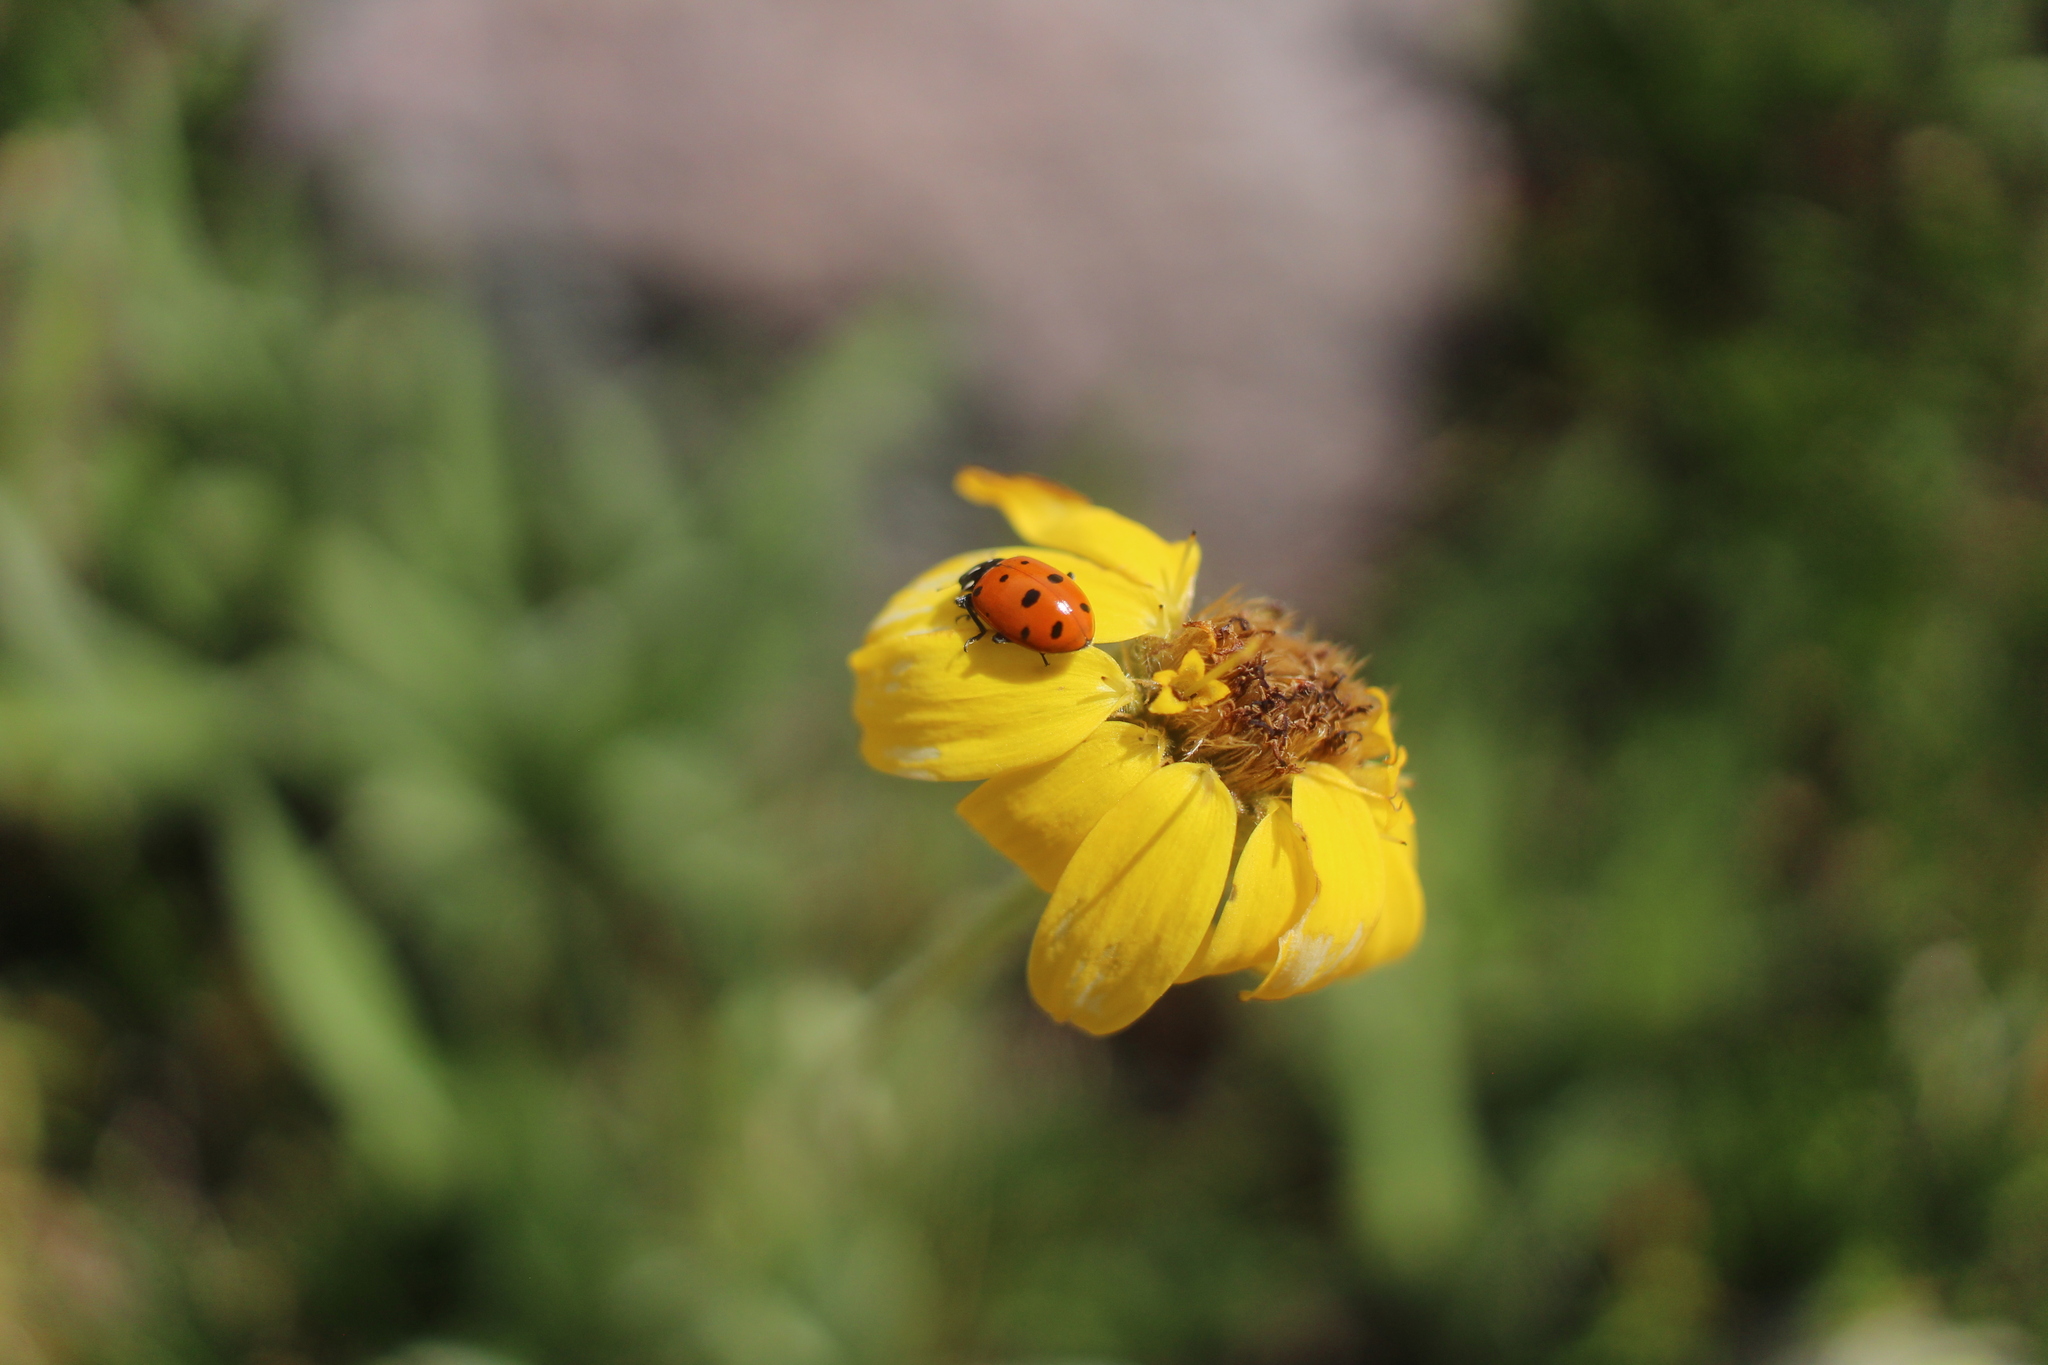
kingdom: Animalia
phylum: Arthropoda
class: Insecta
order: Coleoptera
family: Coccinellidae
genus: Hippodamia
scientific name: Hippodamia convergens
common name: Convergent lady beetle
